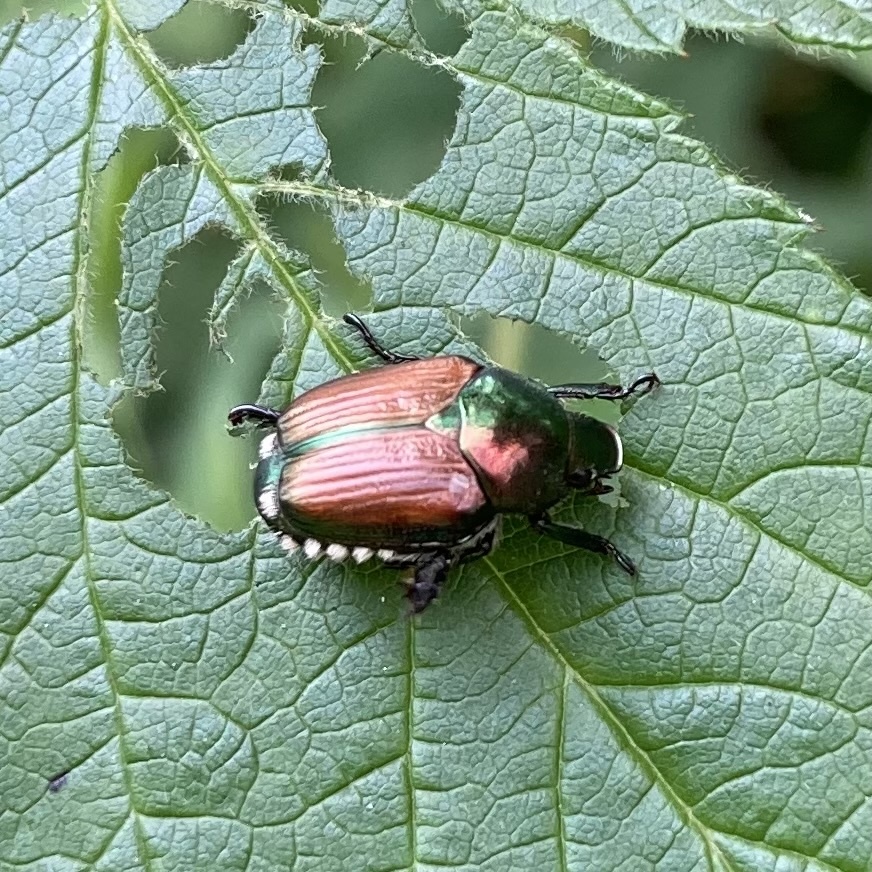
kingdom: Animalia
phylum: Arthropoda
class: Insecta
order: Coleoptera
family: Scarabaeidae
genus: Popillia
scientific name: Popillia japonica
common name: Japanese beetle
